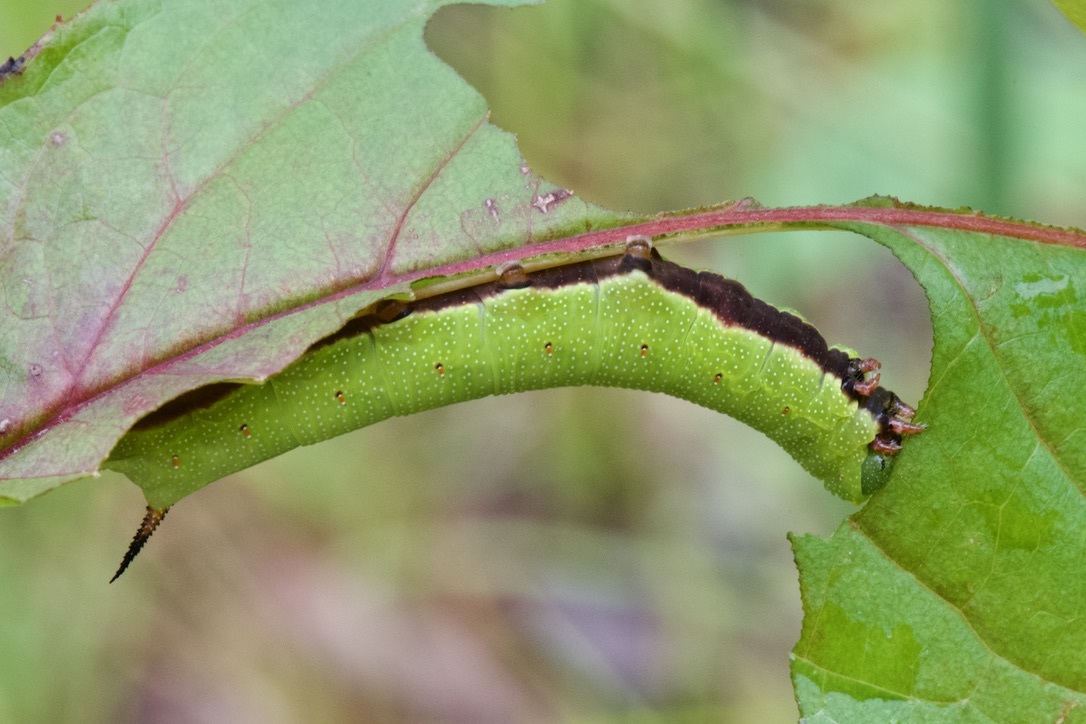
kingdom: Animalia
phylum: Arthropoda
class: Insecta
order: Lepidoptera
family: Sphingidae
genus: Hemaris
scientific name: Hemaris diffinis
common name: Bumblebee moth
